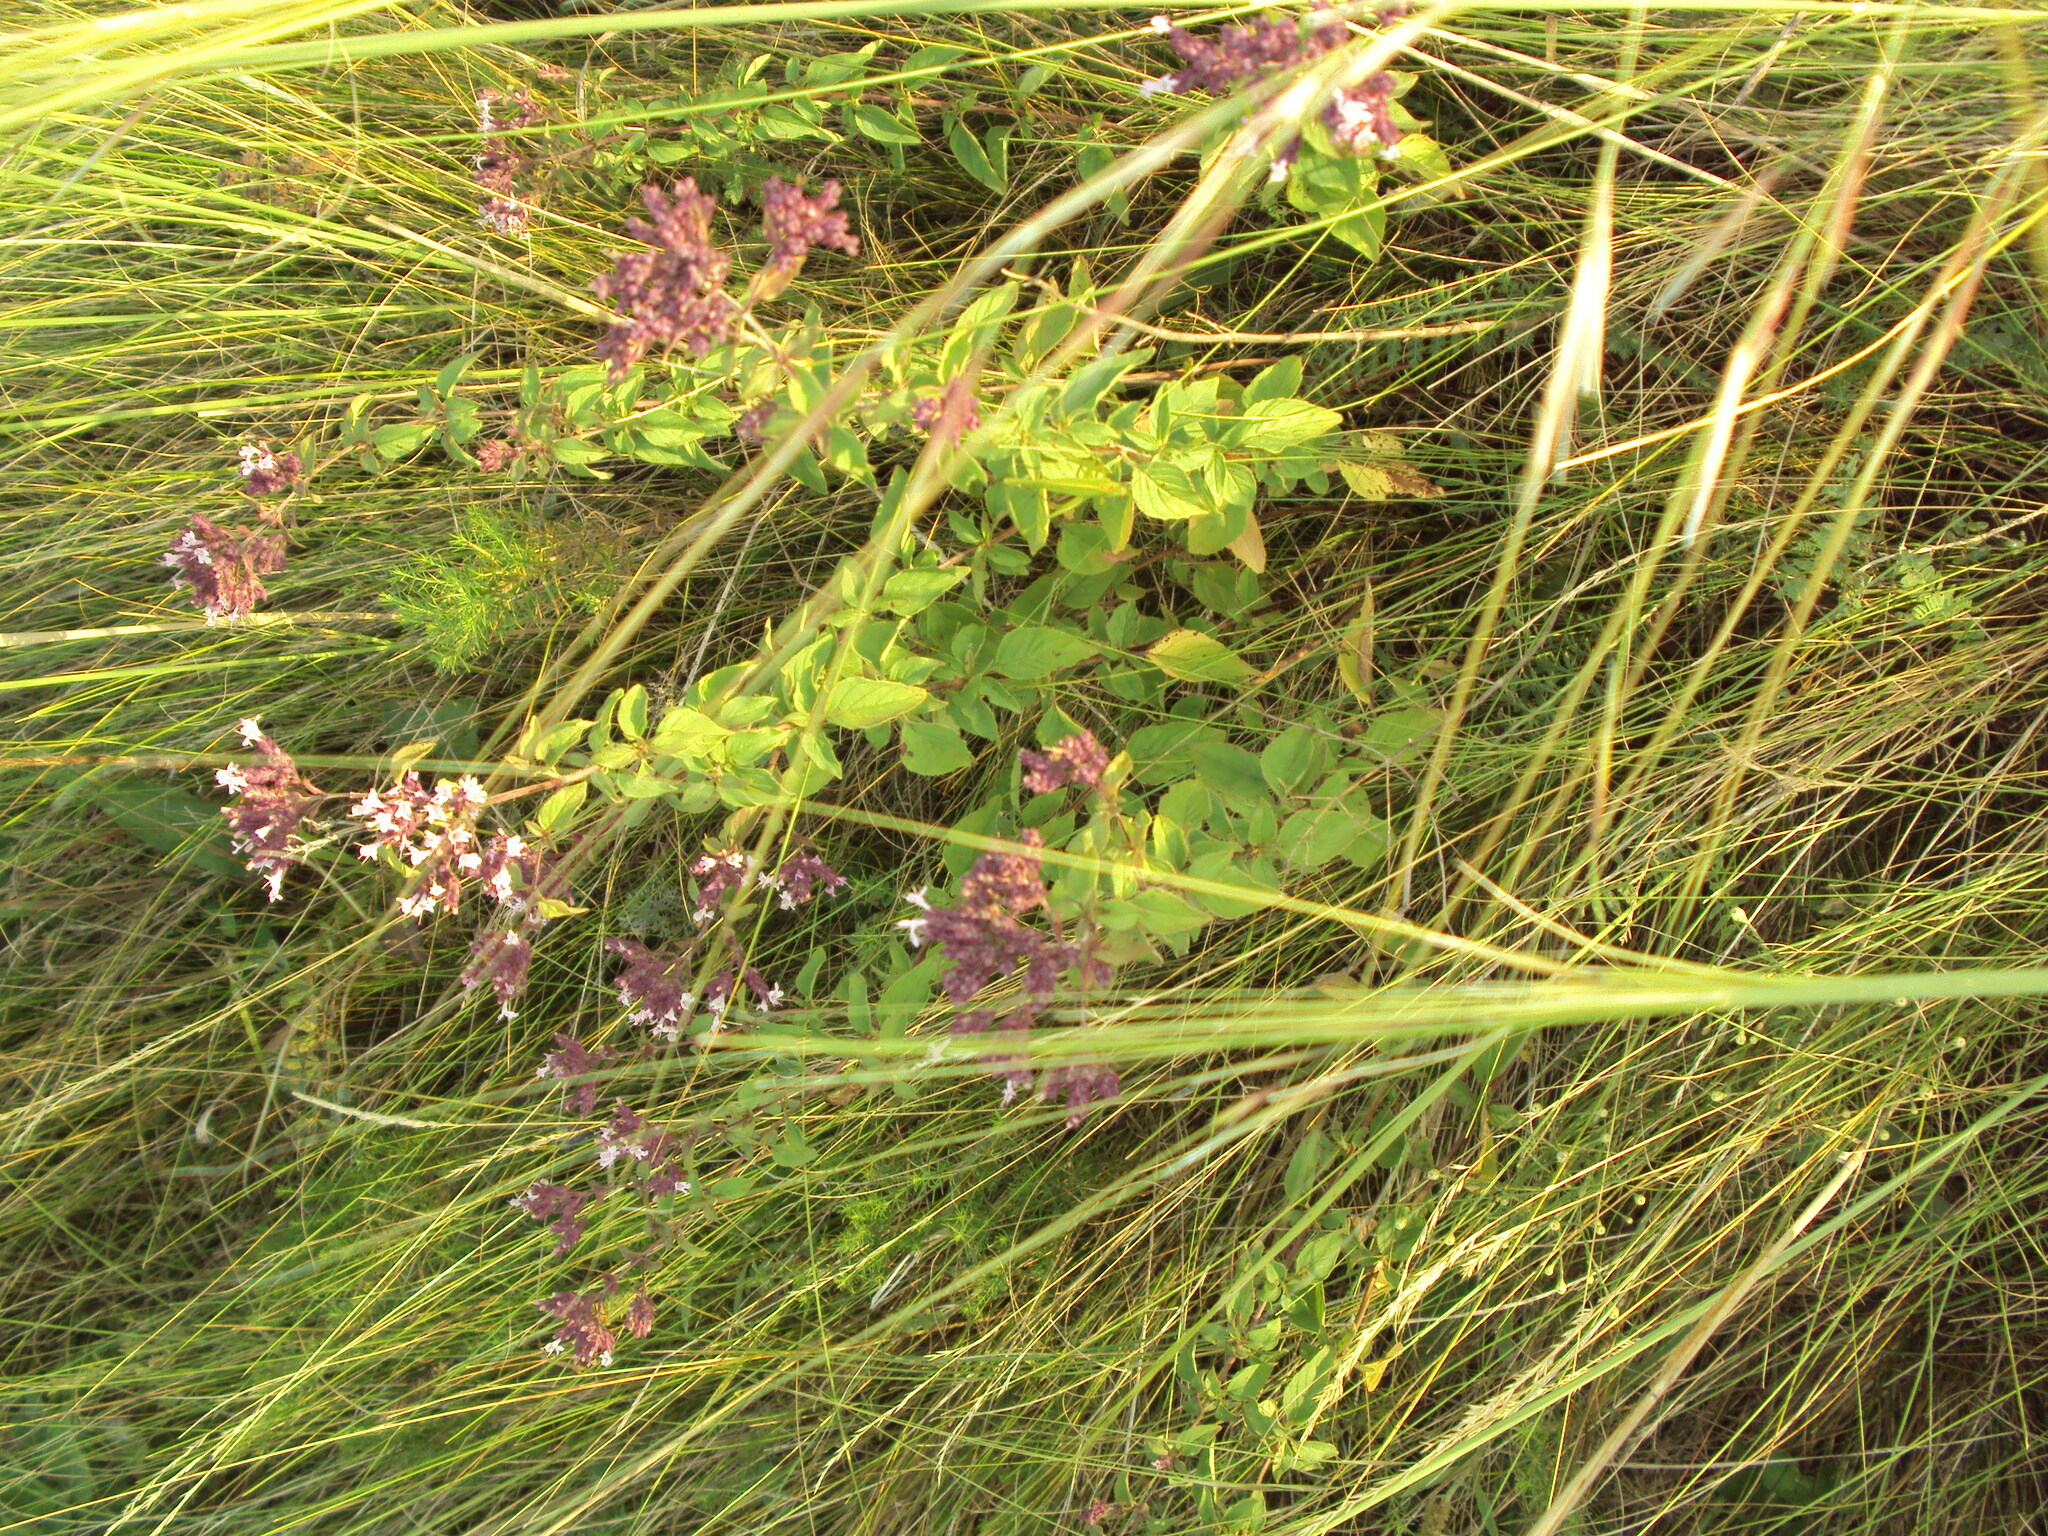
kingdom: Plantae
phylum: Tracheophyta
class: Magnoliopsida
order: Lamiales
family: Lamiaceae
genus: Origanum
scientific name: Origanum vulgare
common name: Wild marjoram
